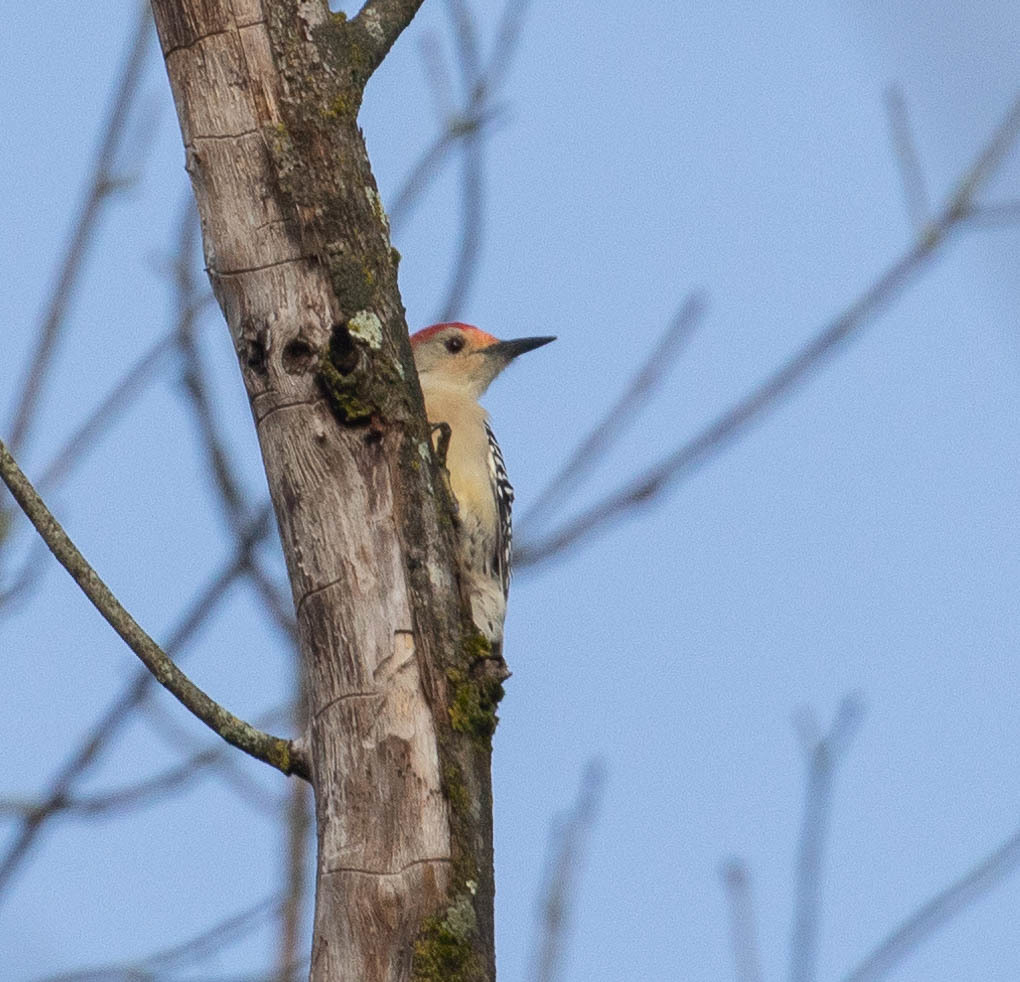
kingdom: Animalia
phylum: Chordata
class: Aves
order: Piciformes
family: Picidae
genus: Melanerpes
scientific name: Melanerpes carolinus
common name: Red-bellied woodpecker
